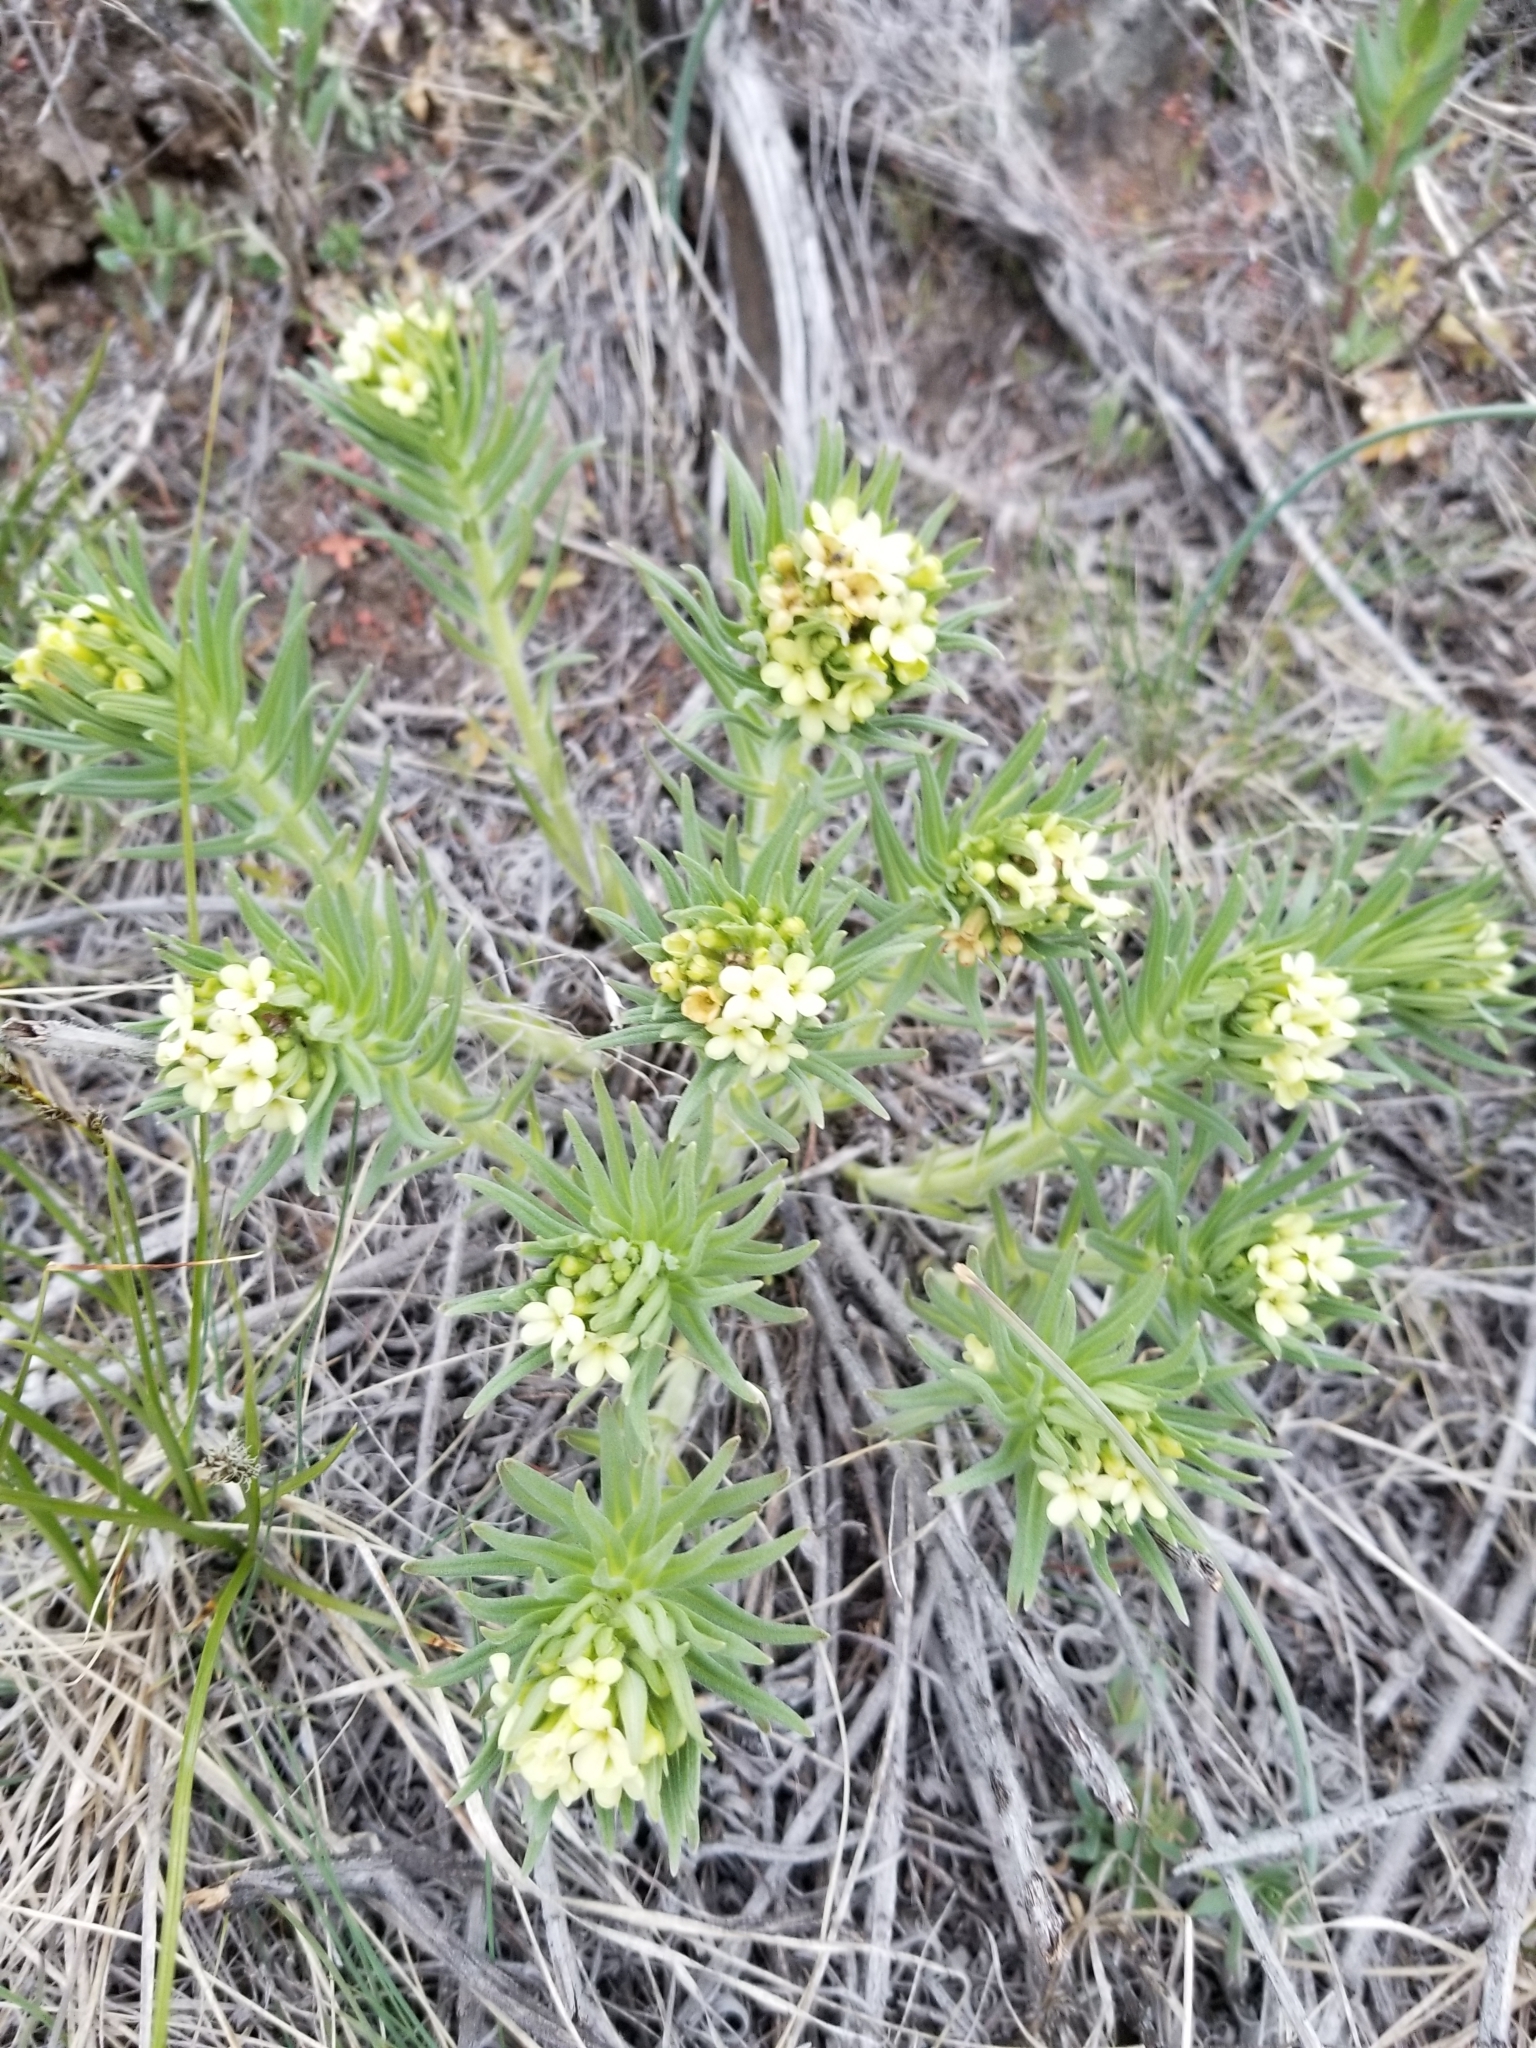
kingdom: Plantae
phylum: Tracheophyta
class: Magnoliopsida
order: Boraginales
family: Boraginaceae
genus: Lithospermum
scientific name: Lithospermum ruderale
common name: Western gromwell
